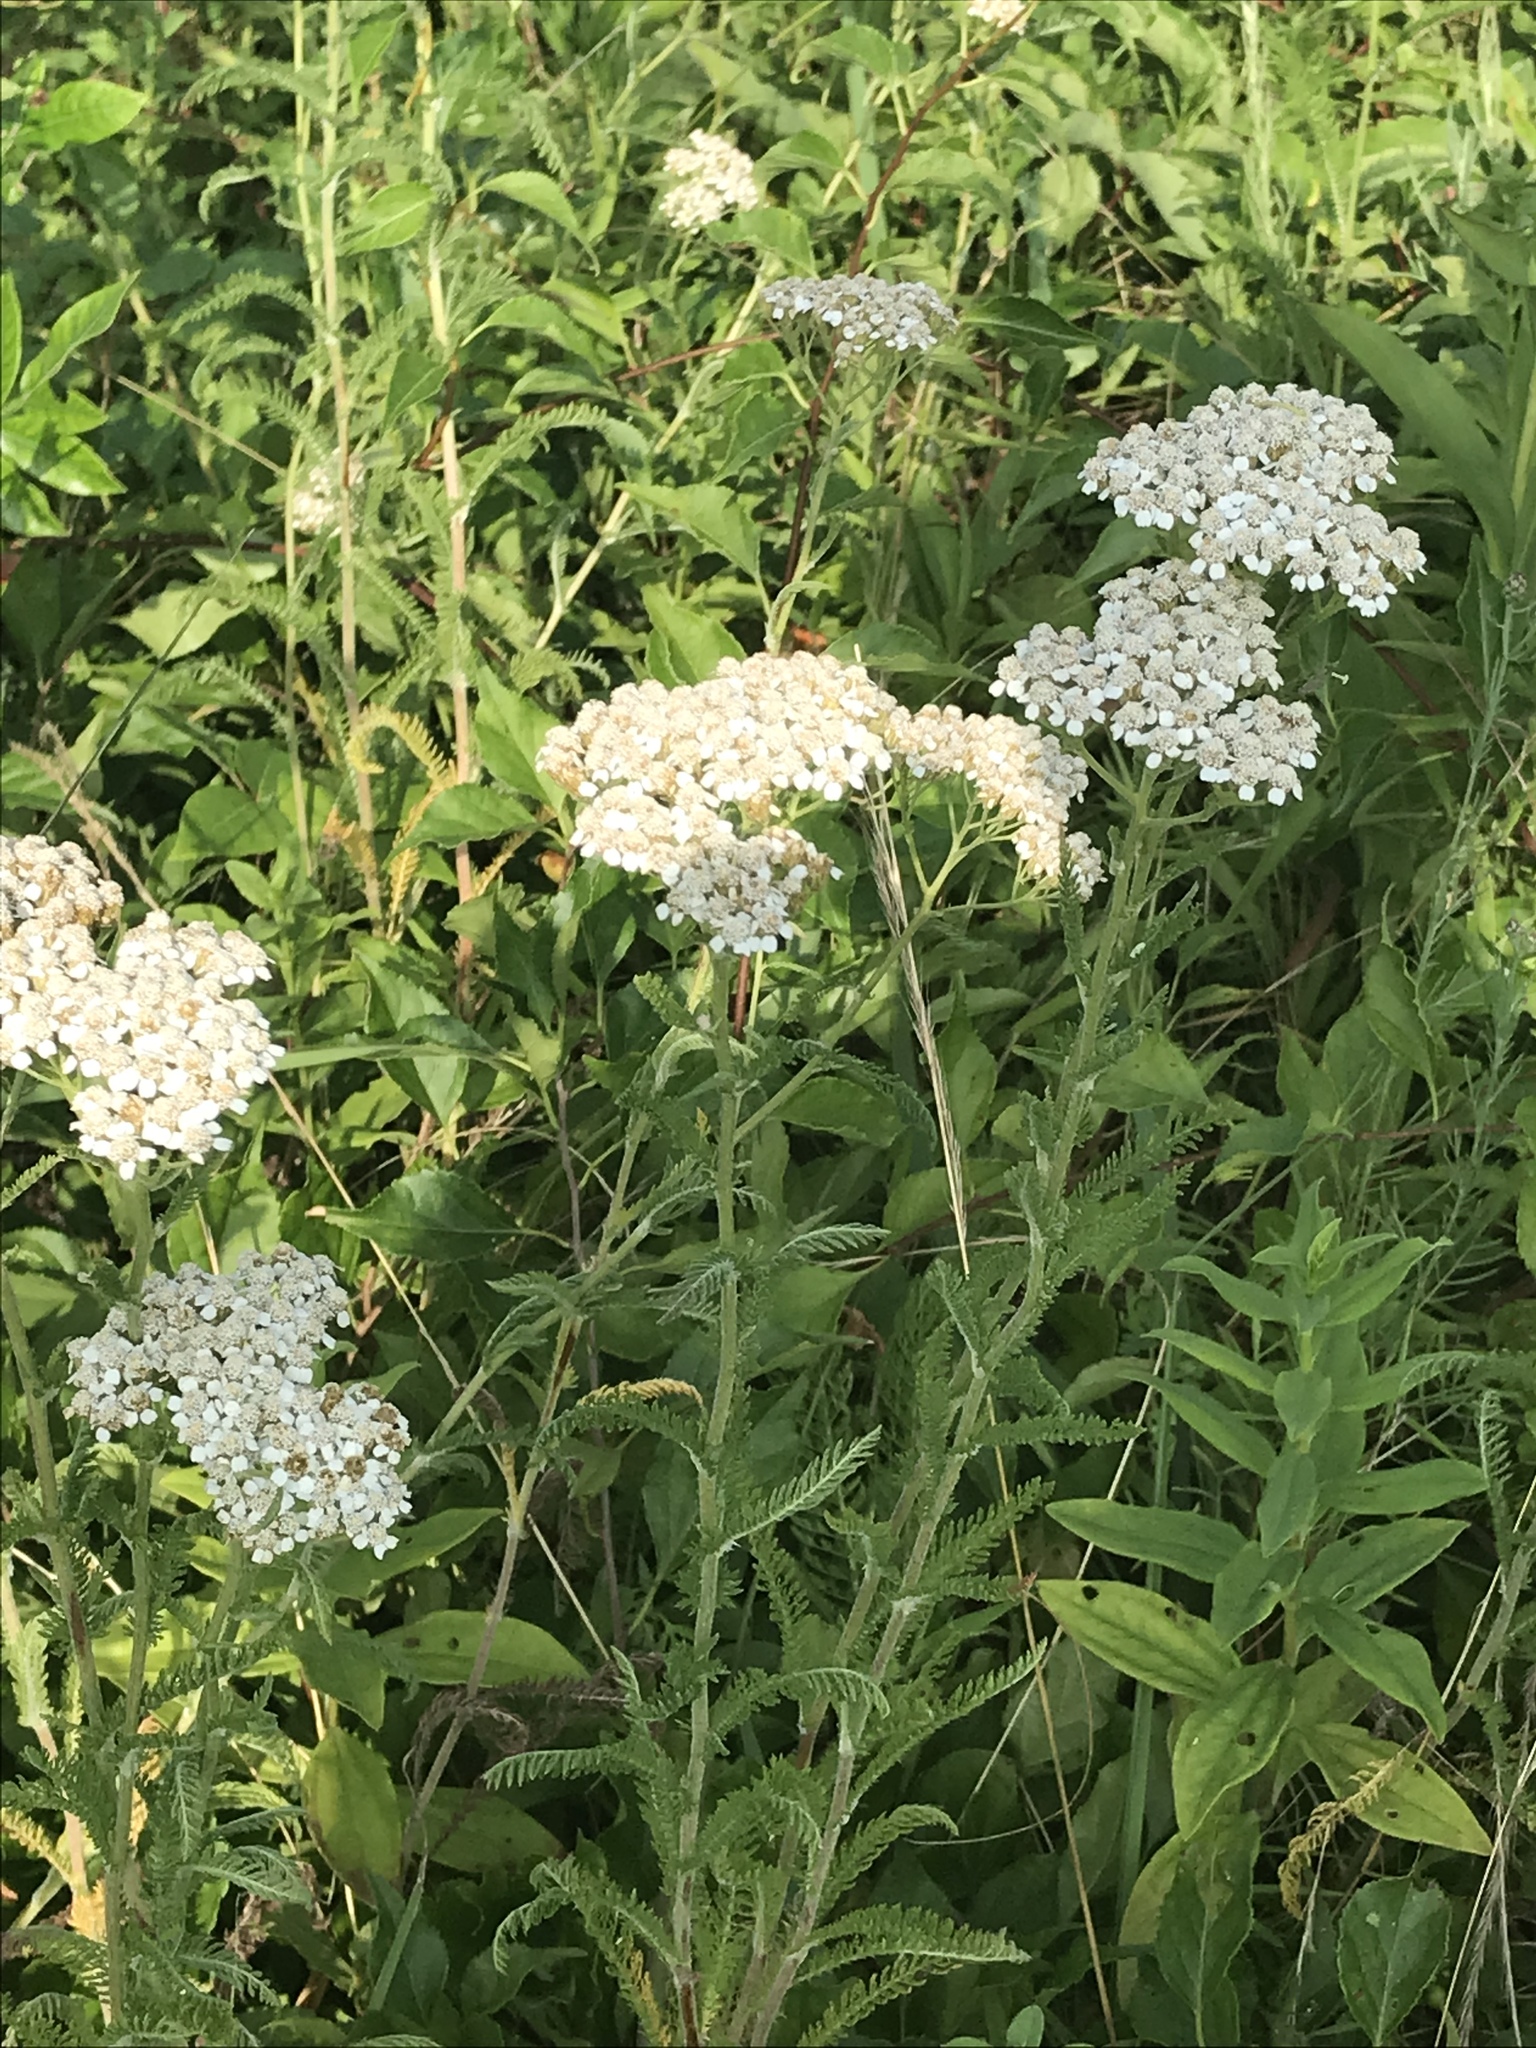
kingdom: Plantae
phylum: Tracheophyta
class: Magnoliopsida
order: Asterales
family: Asteraceae
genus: Achillea
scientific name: Achillea millefolium
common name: Yarrow
